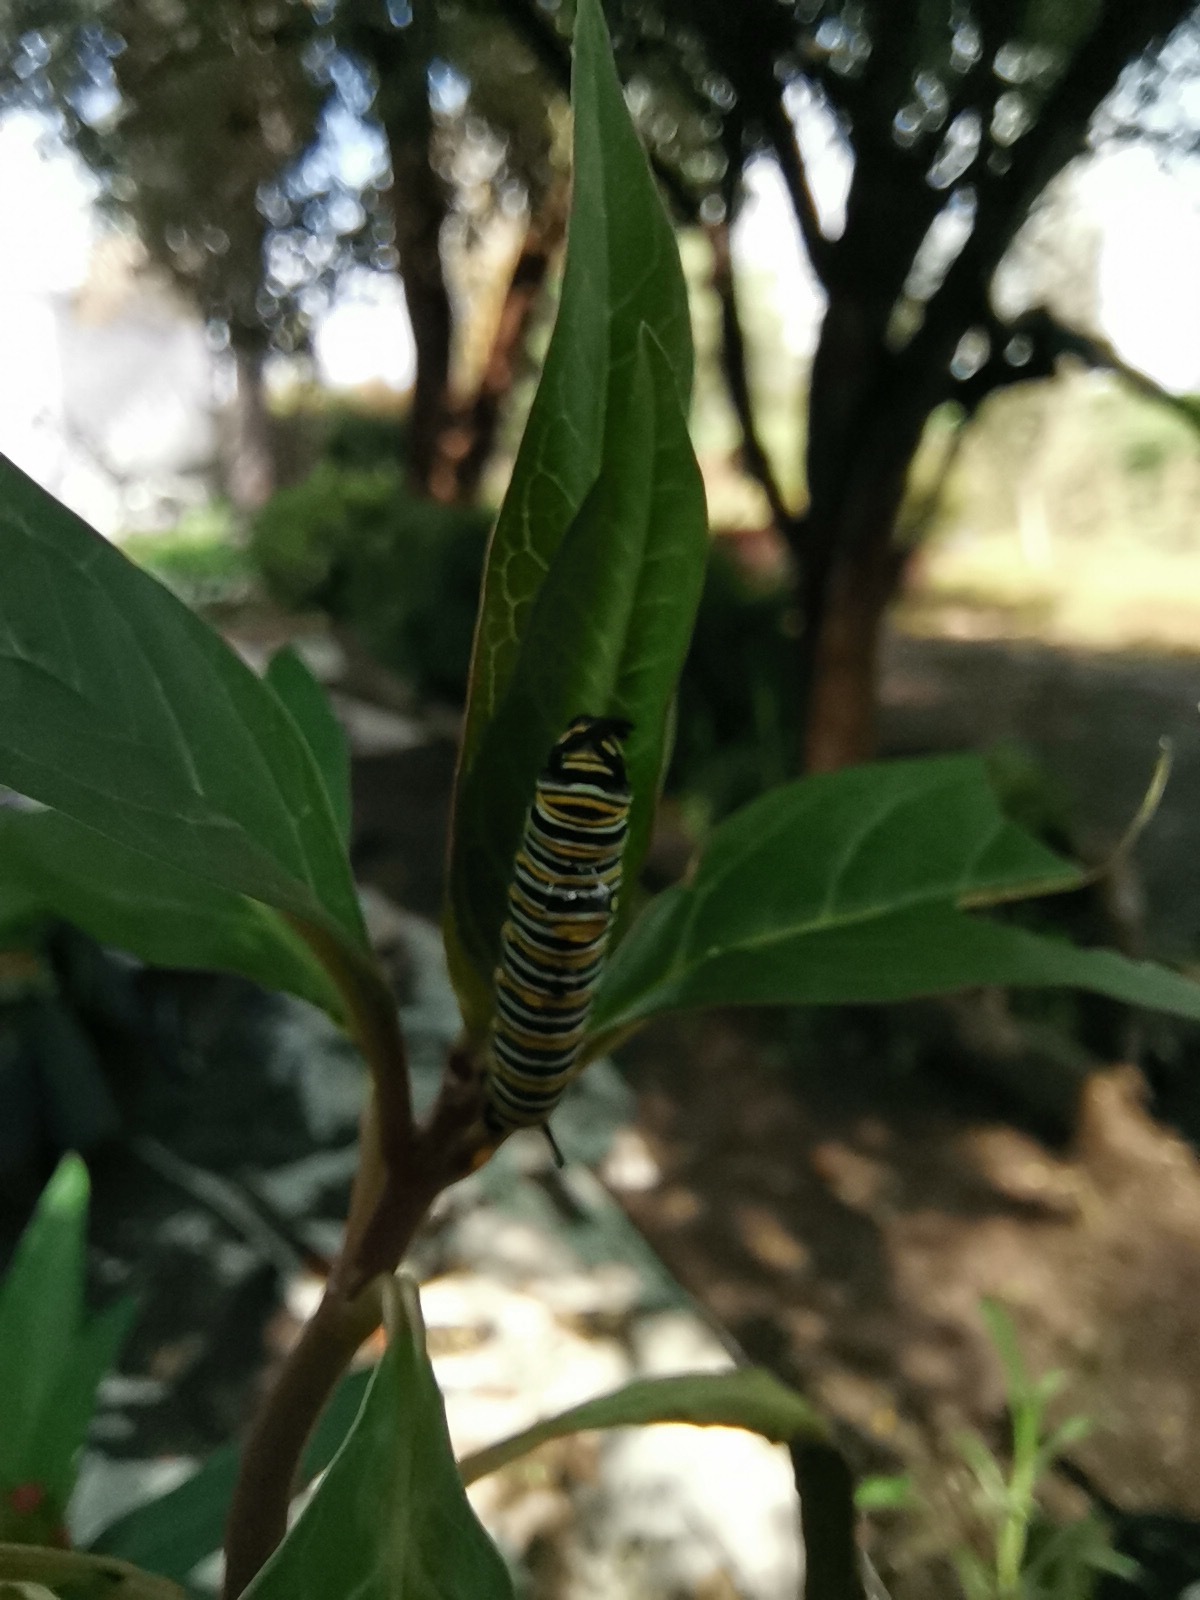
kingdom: Animalia
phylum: Arthropoda
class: Insecta
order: Lepidoptera
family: Nymphalidae
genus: Danaus
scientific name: Danaus plexippus
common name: Monarch
